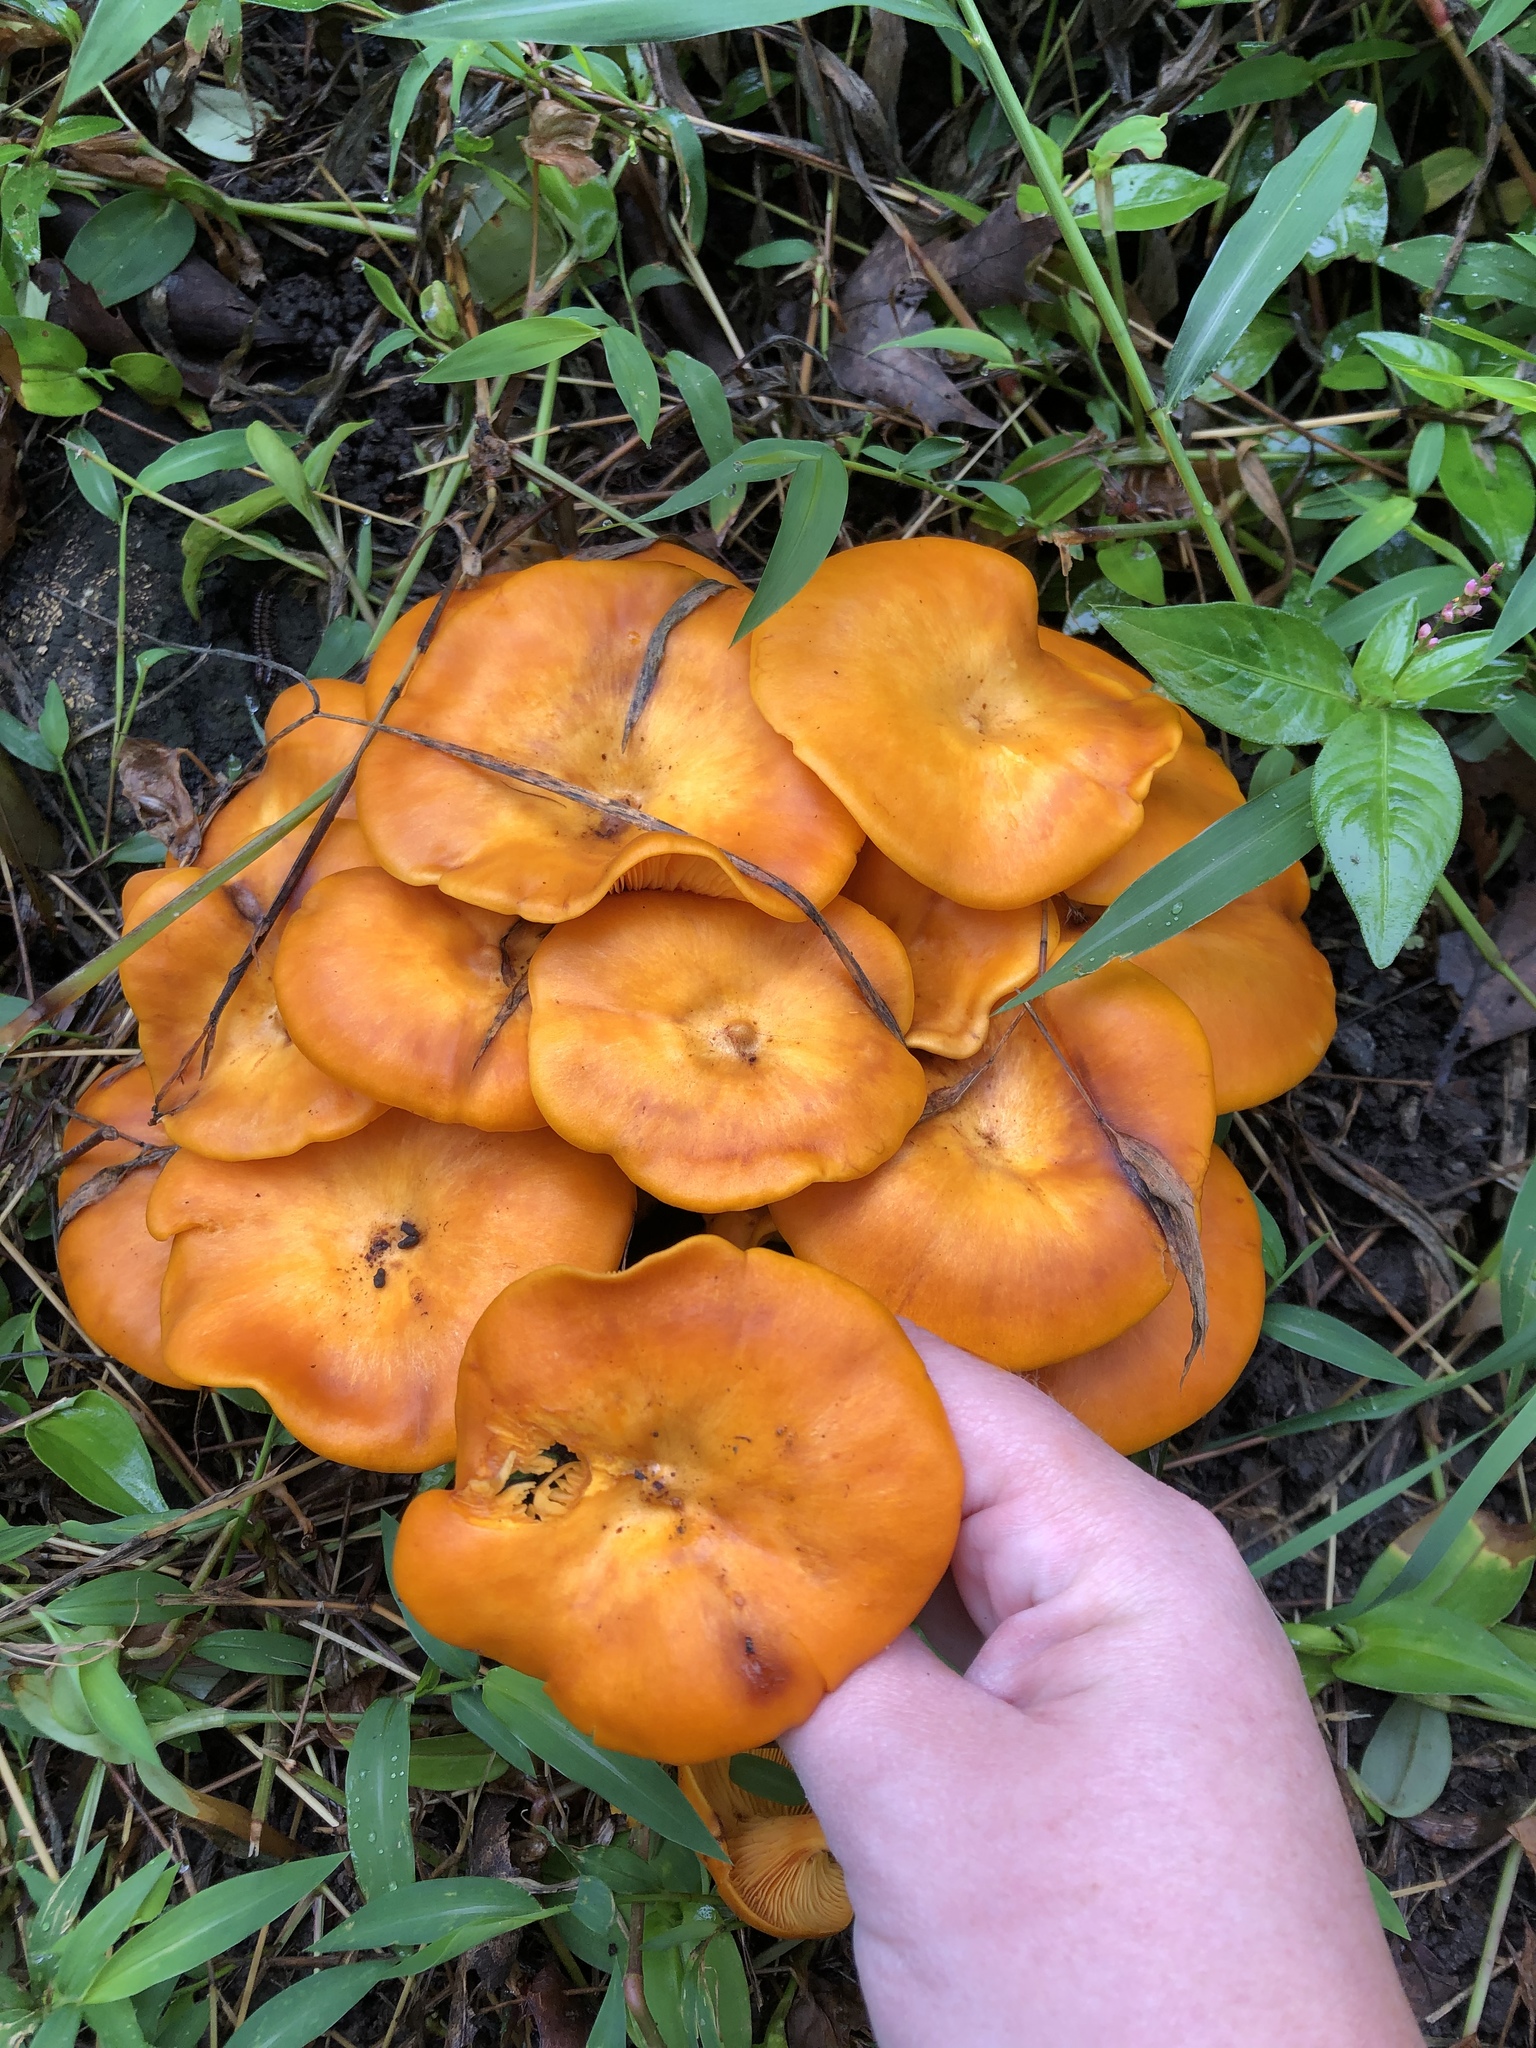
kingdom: Fungi
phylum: Basidiomycota
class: Agaricomycetes
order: Agaricales
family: Omphalotaceae
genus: Omphalotus
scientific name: Omphalotus illudens
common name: Jack o lantern
